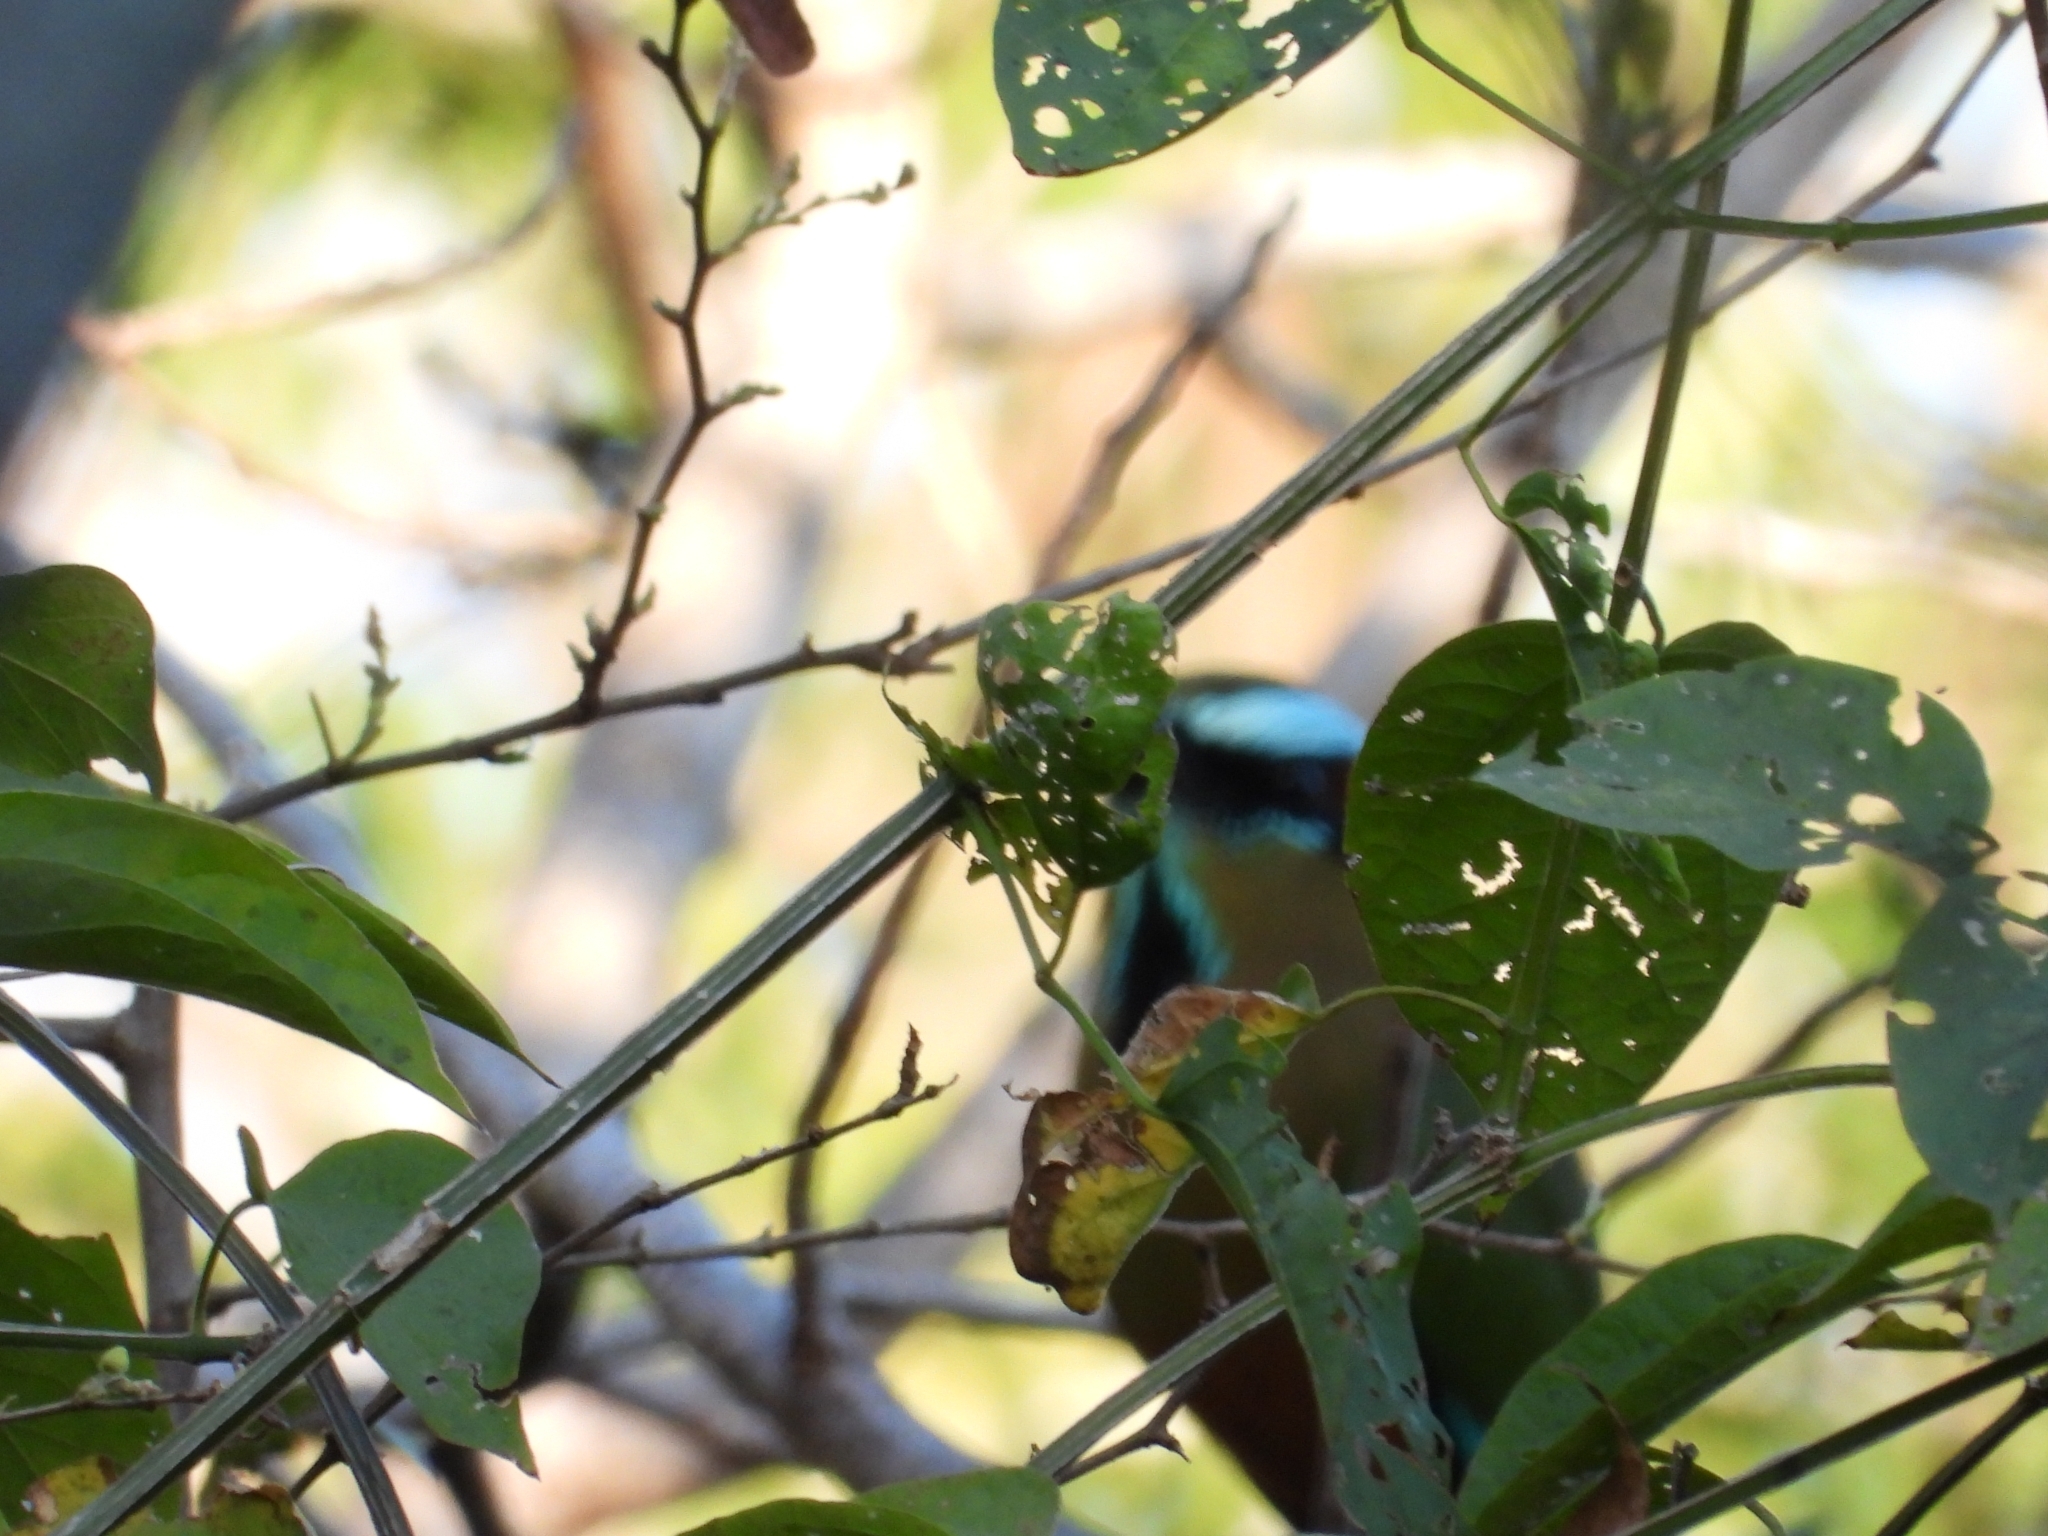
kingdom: Animalia
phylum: Chordata
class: Aves
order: Coraciiformes
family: Momotidae
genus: Eumomota
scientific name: Eumomota superciliosa
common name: Turquoise-browed motmot
